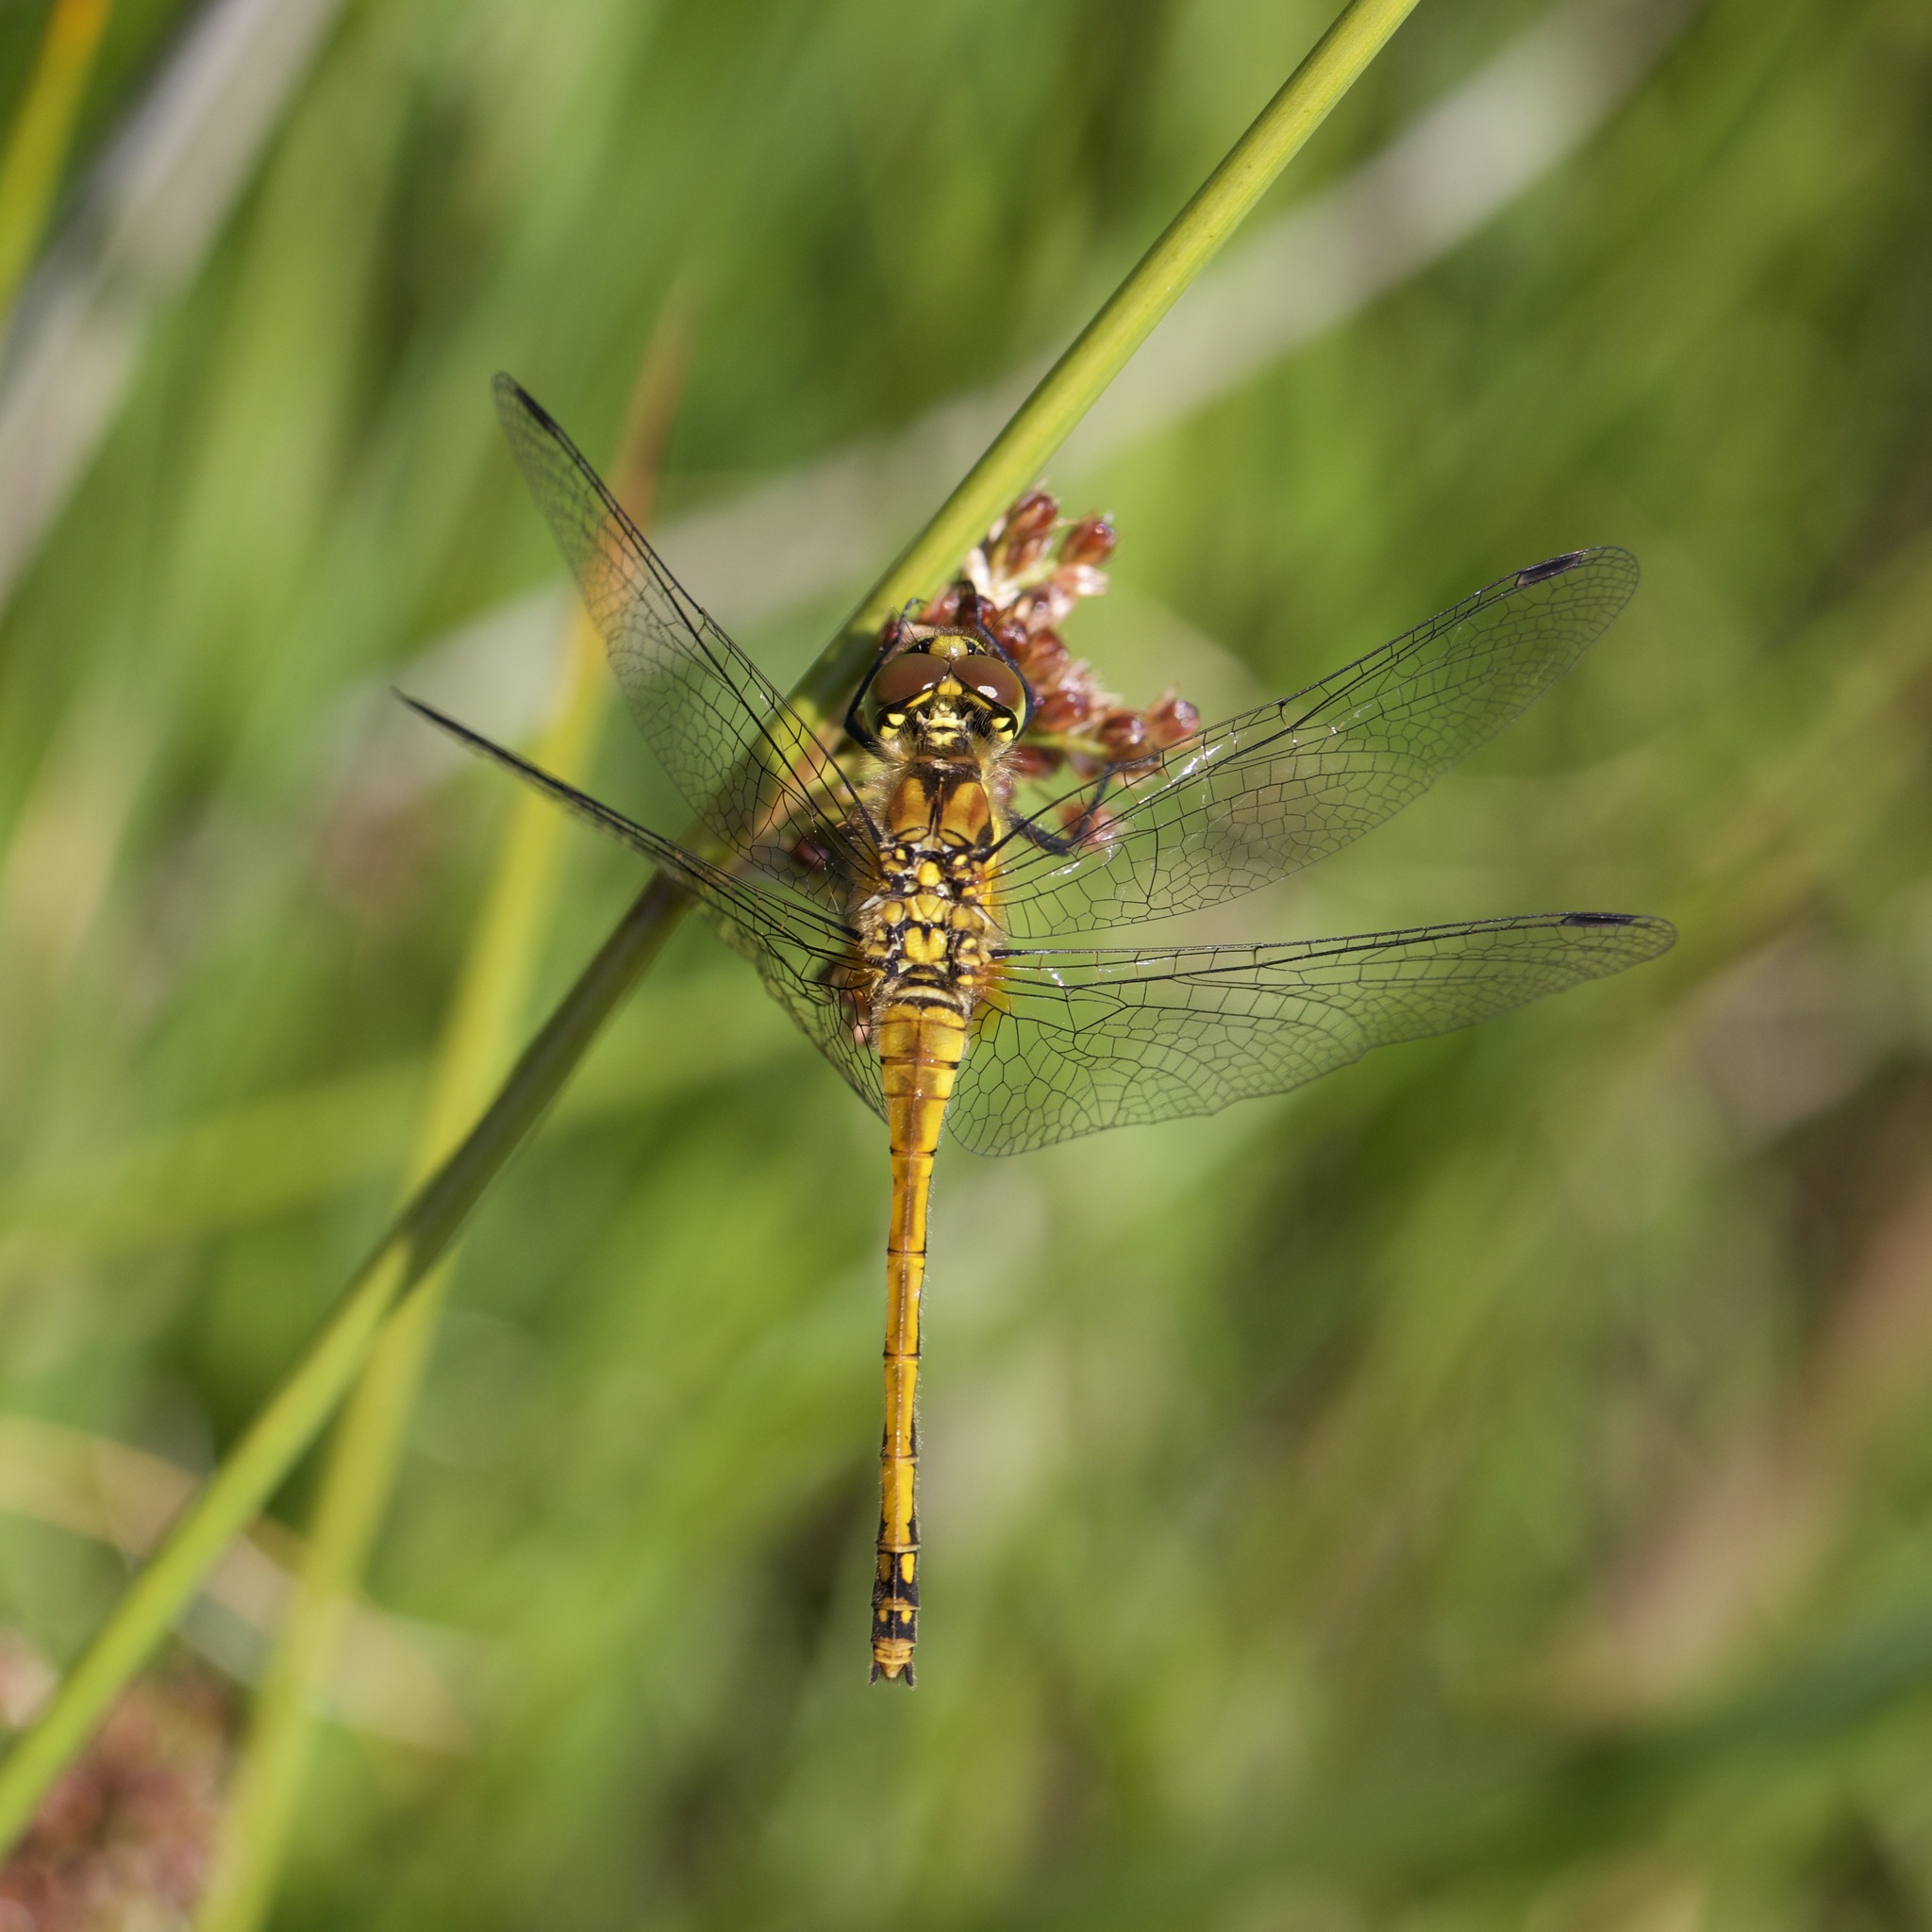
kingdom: Animalia
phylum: Arthropoda
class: Insecta
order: Odonata
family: Libellulidae
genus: Sympetrum
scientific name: Sympetrum danae
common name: Black darter
